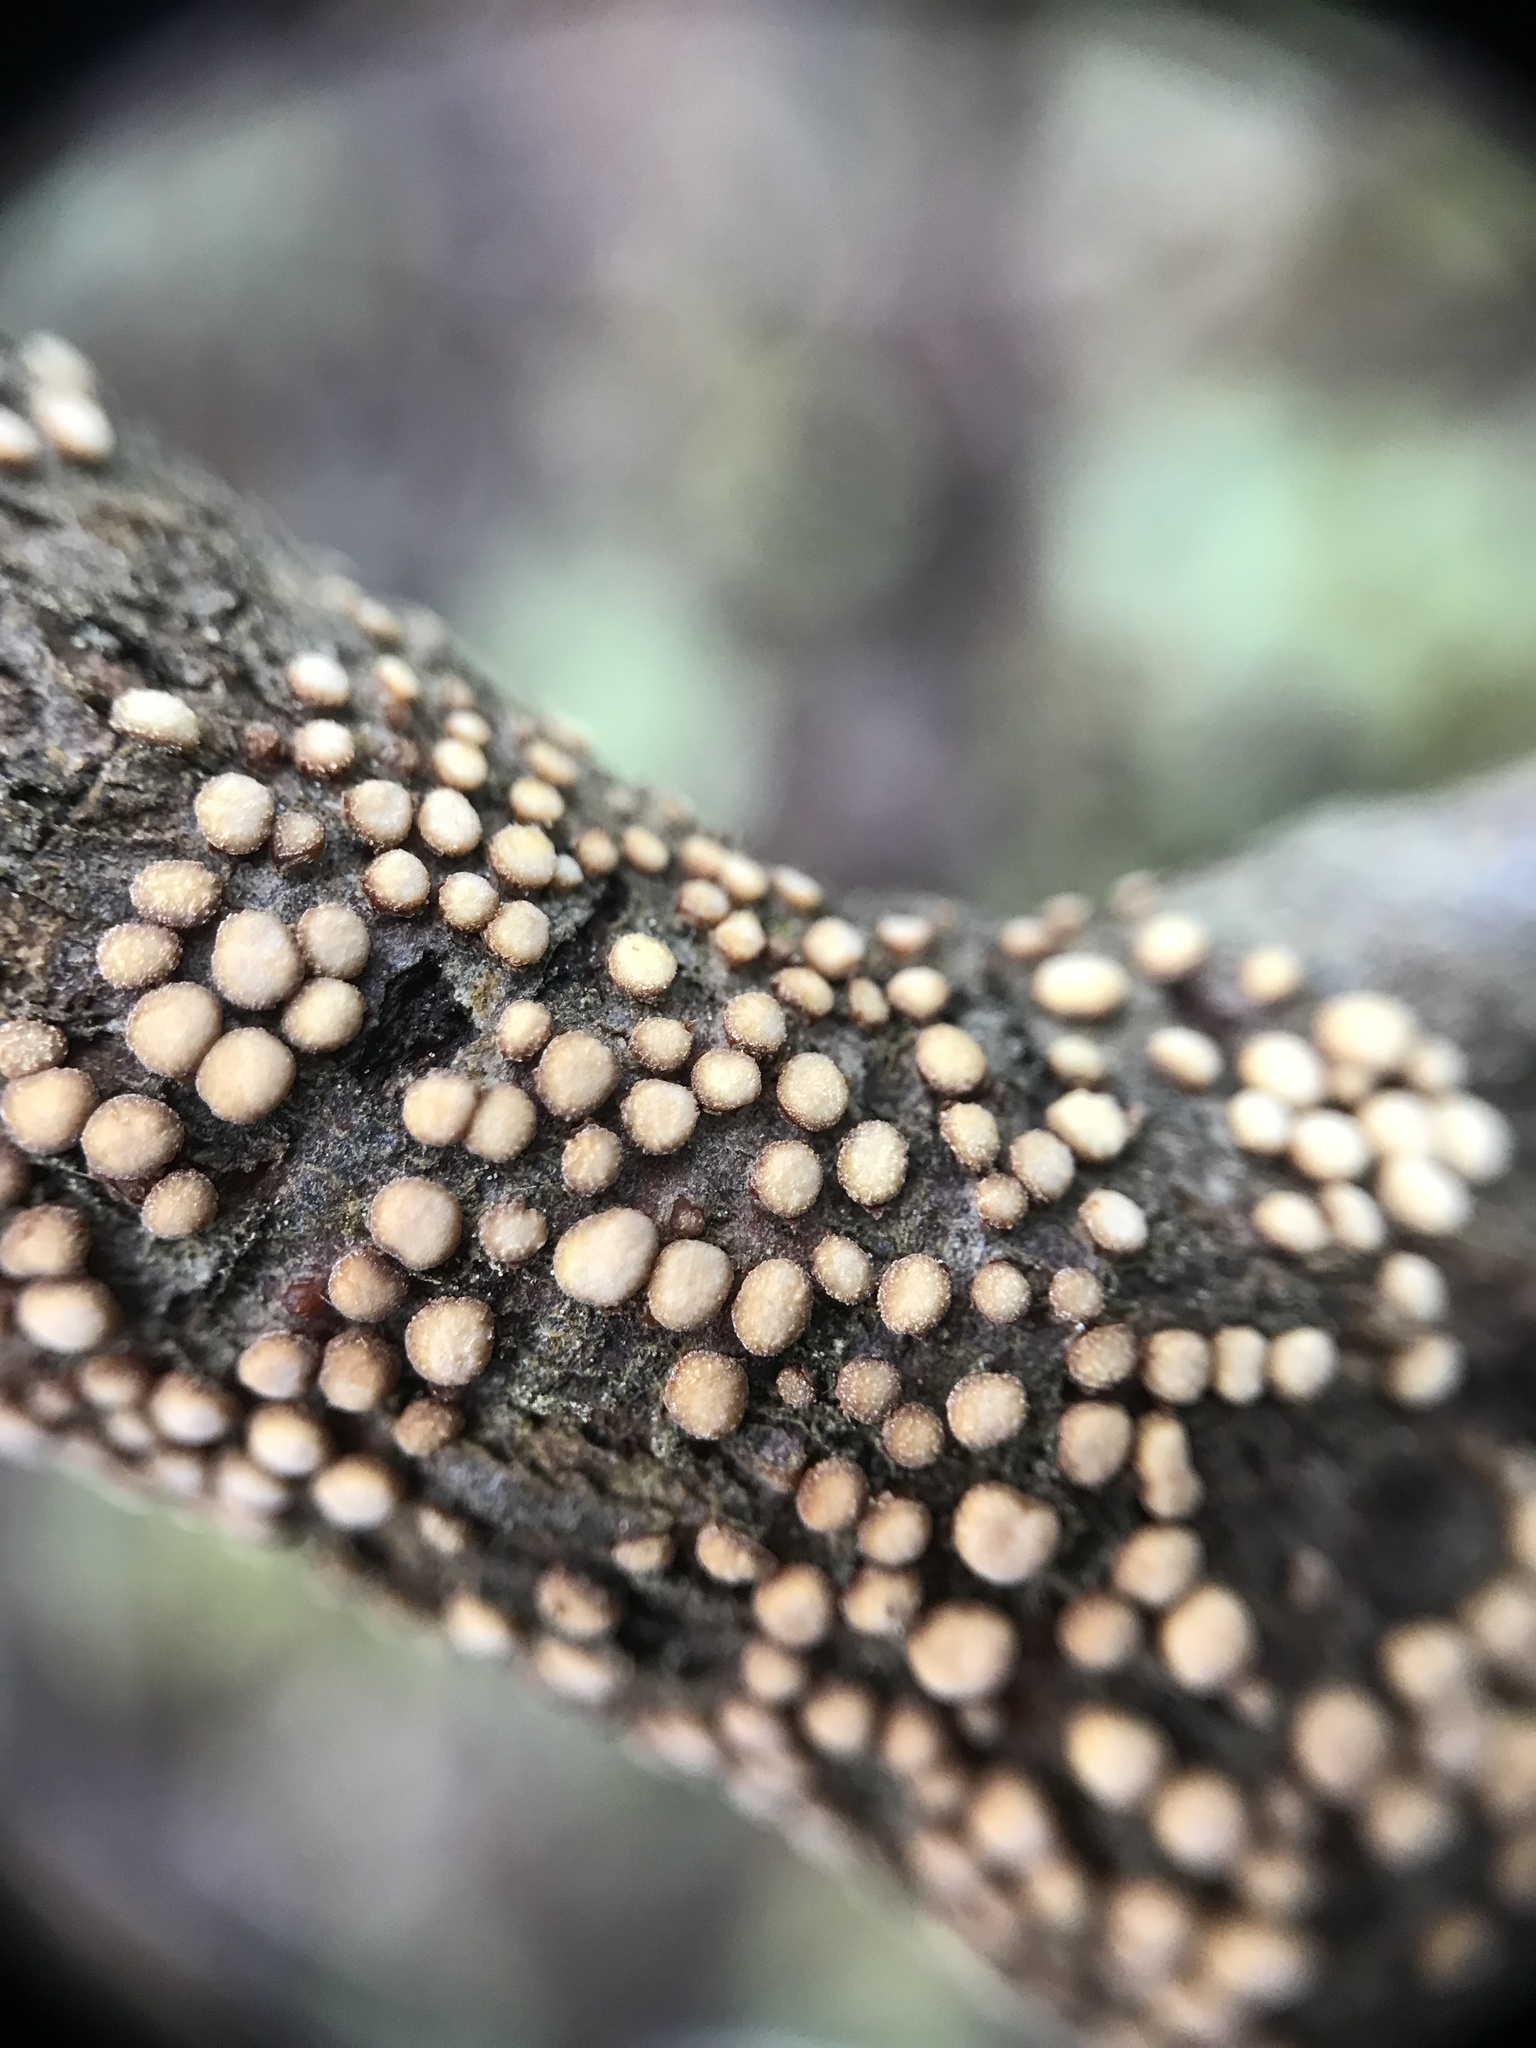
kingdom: Fungi
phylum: Basidiomycota
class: Agaricomycetes
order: Russulales
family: Stereaceae
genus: Aleurodiscus
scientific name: Aleurodiscus berggrenii
